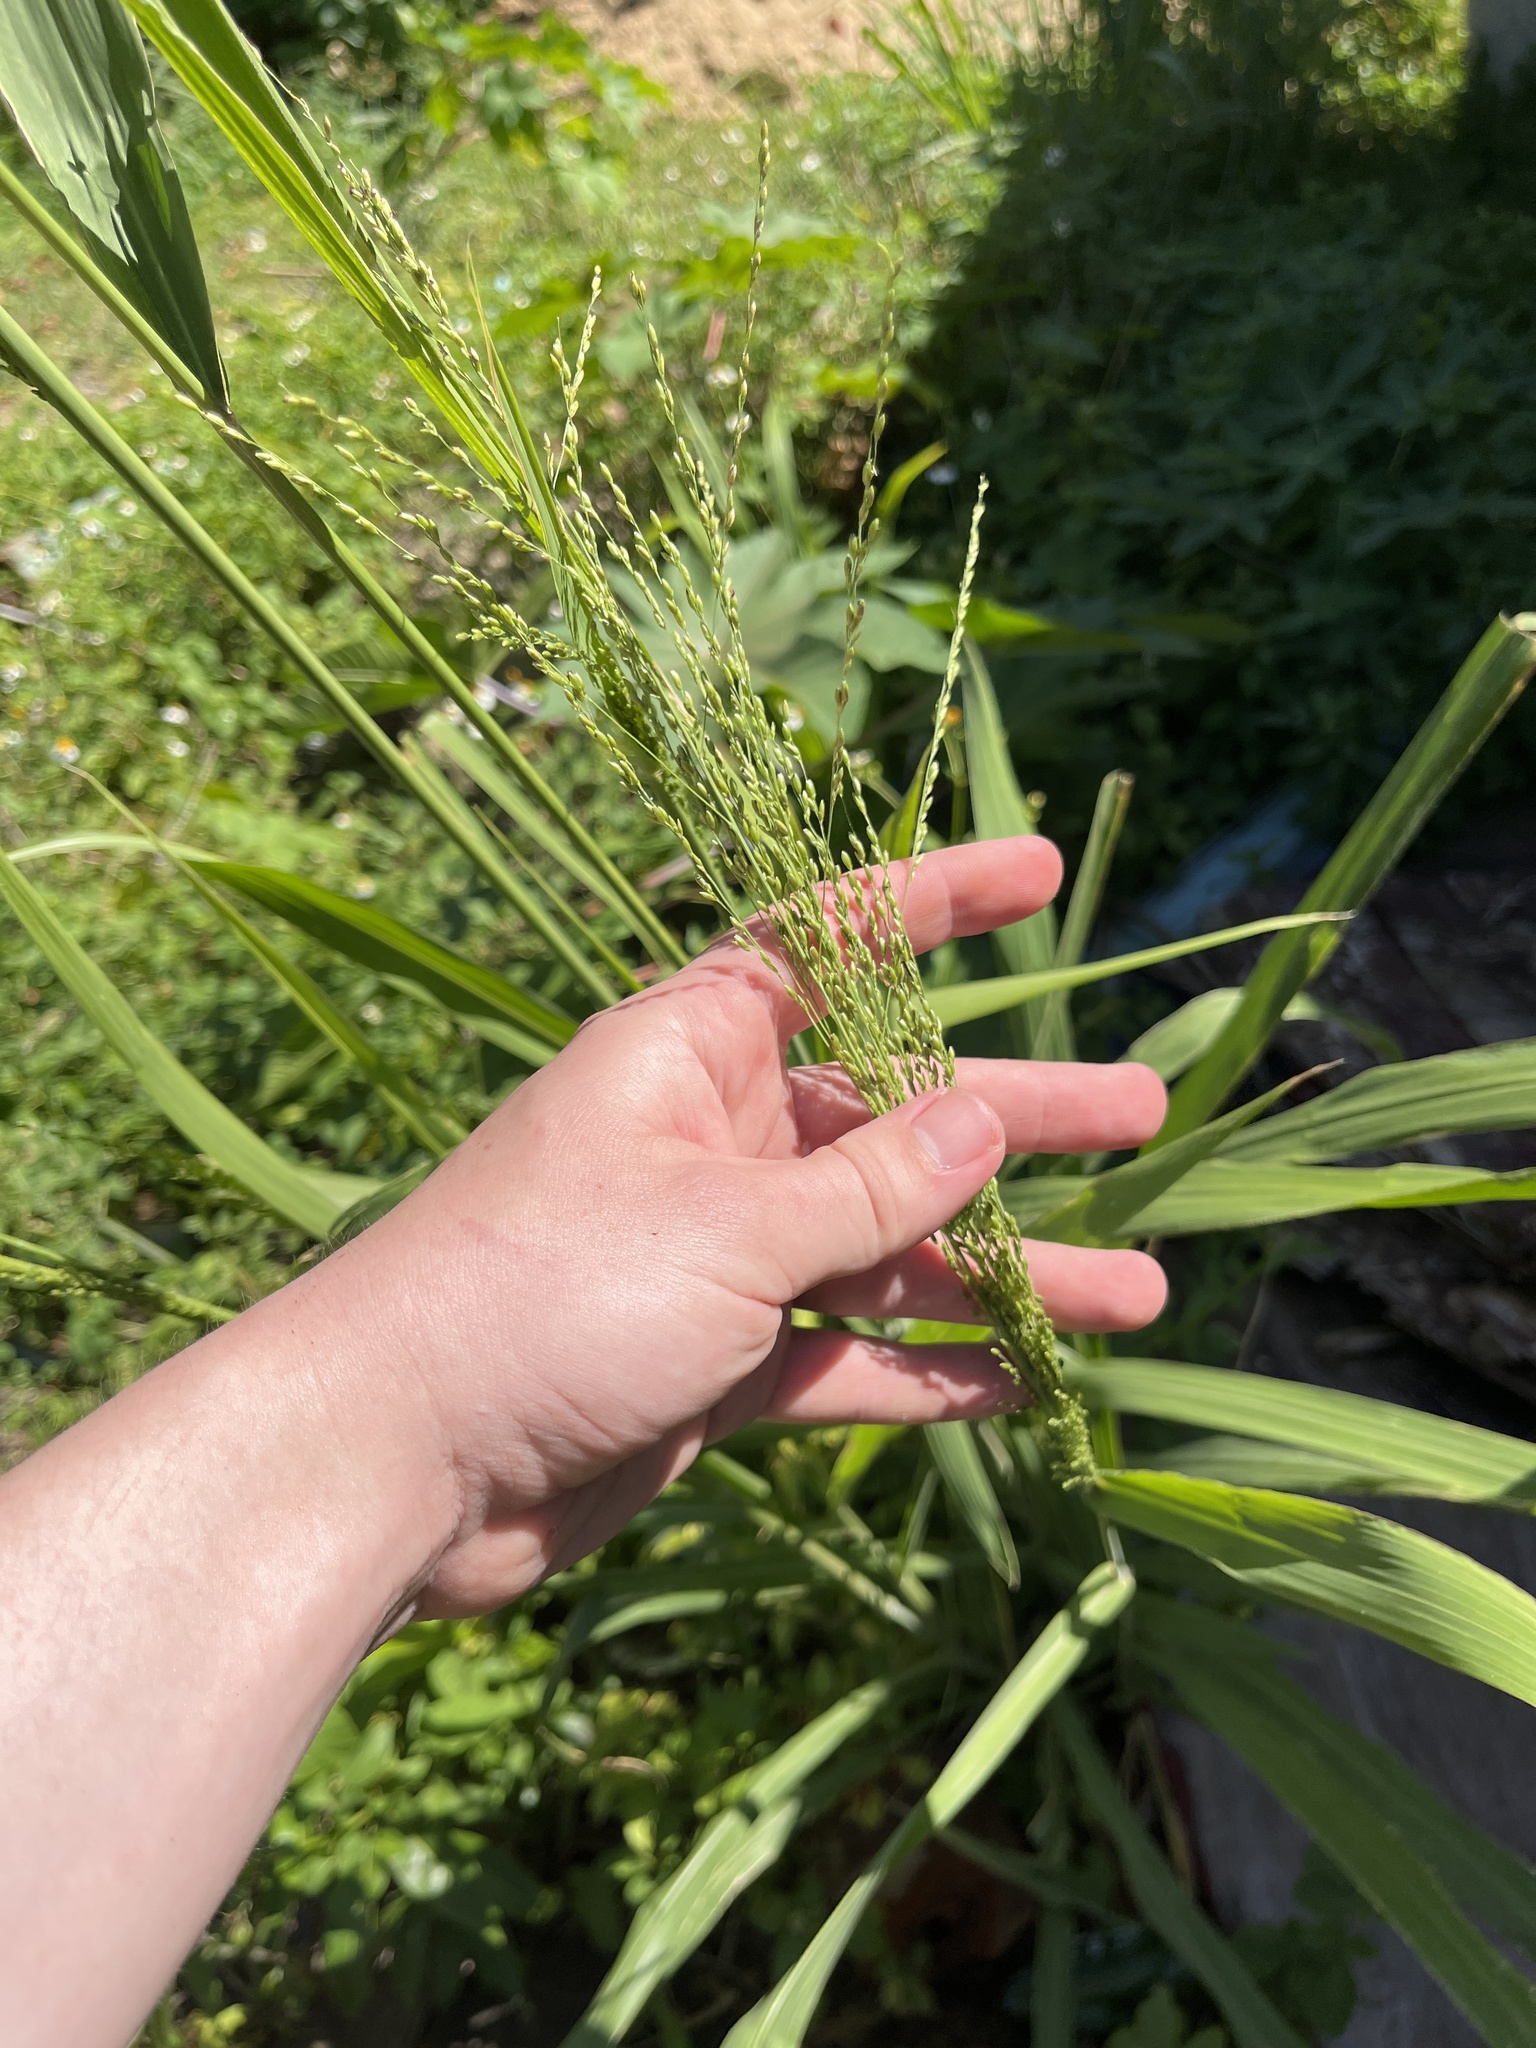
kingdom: Plantae
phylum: Tracheophyta
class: Liliopsida
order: Poales
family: Poaceae
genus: Megathyrsus
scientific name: Megathyrsus maximus
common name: Guineagrass
